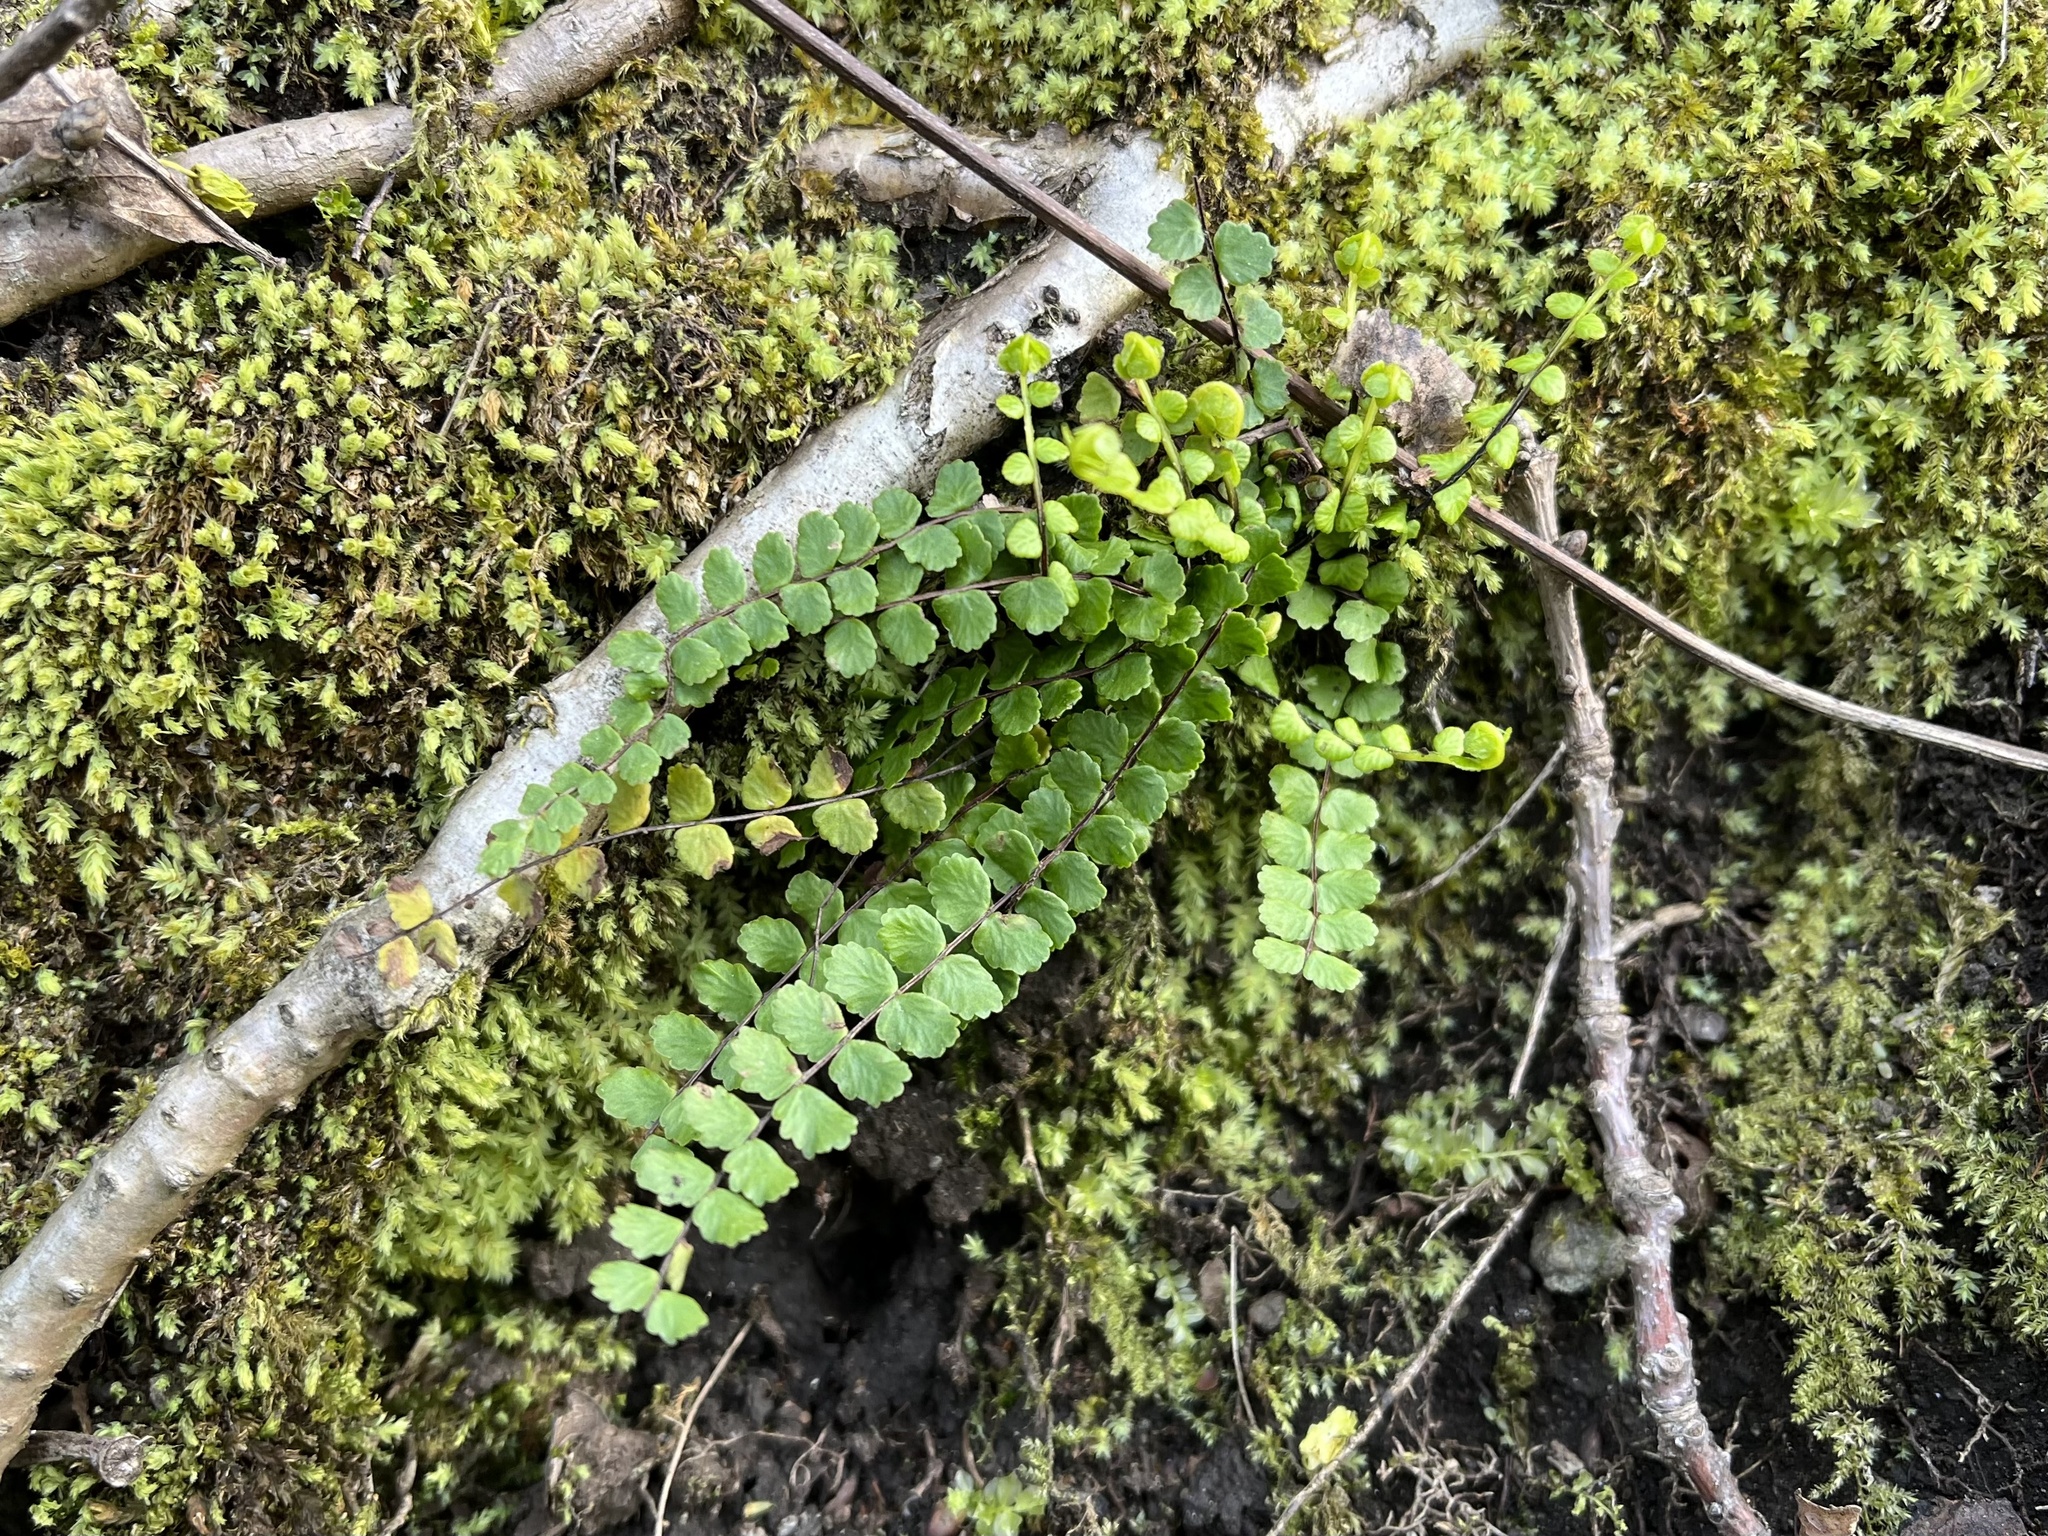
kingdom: Plantae
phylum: Tracheophyta
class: Polypodiopsida
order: Polypodiales
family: Aspleniaceae
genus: Asplenium
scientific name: Asplenium trichomanes
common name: Maidenhair spleenwort
